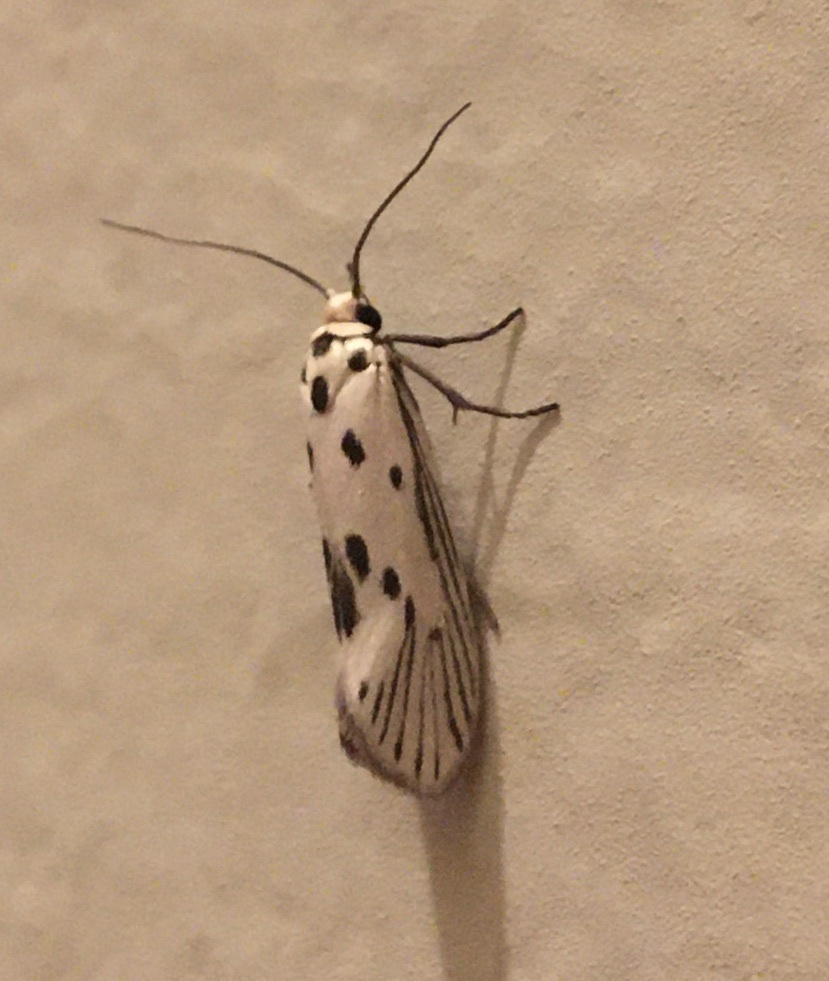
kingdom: Animalia
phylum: Arthropoda
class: Insecta
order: Lepidoptera
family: Lacturidae
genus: Lactura
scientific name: Lactura
